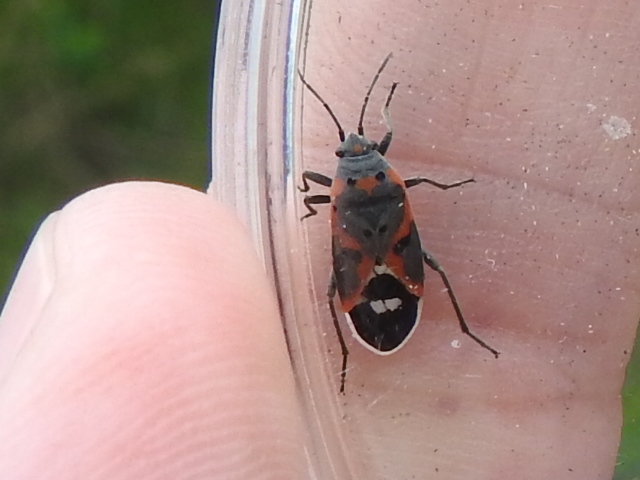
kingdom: Animalia
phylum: Arthropoda
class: Insecta
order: Hemiptera
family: Lygaeidae
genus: Lygaeus
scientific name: Lygaeus kalmii
